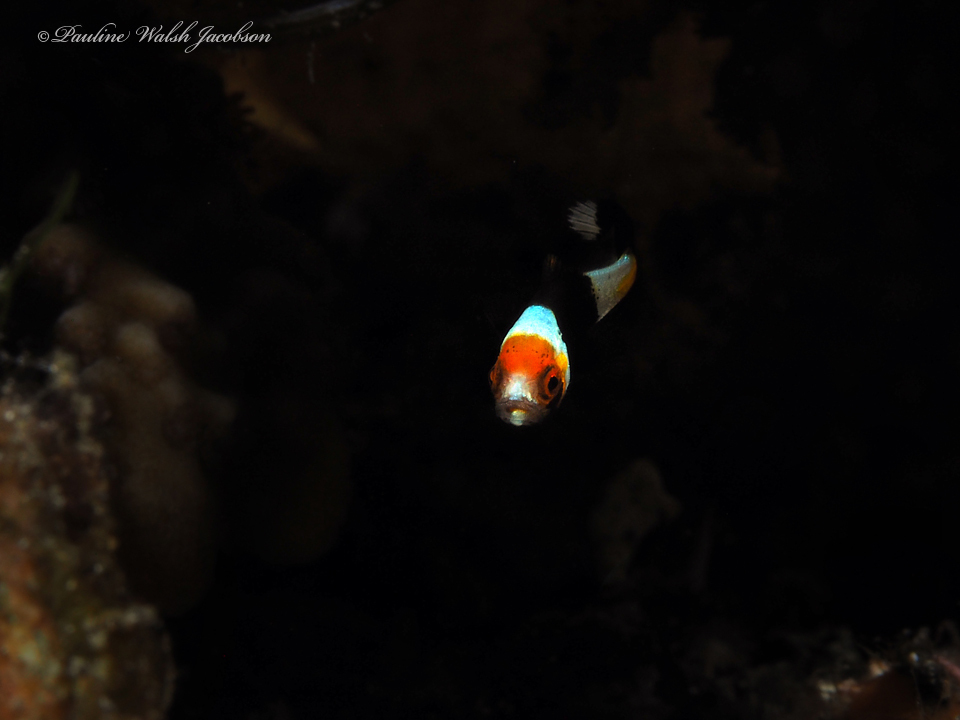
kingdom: Animalia
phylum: Chordata
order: Perciformes
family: Haemulidae
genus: Plectorhinchus
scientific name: Plectorhinchus vittatus
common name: Oriental sweetlips
